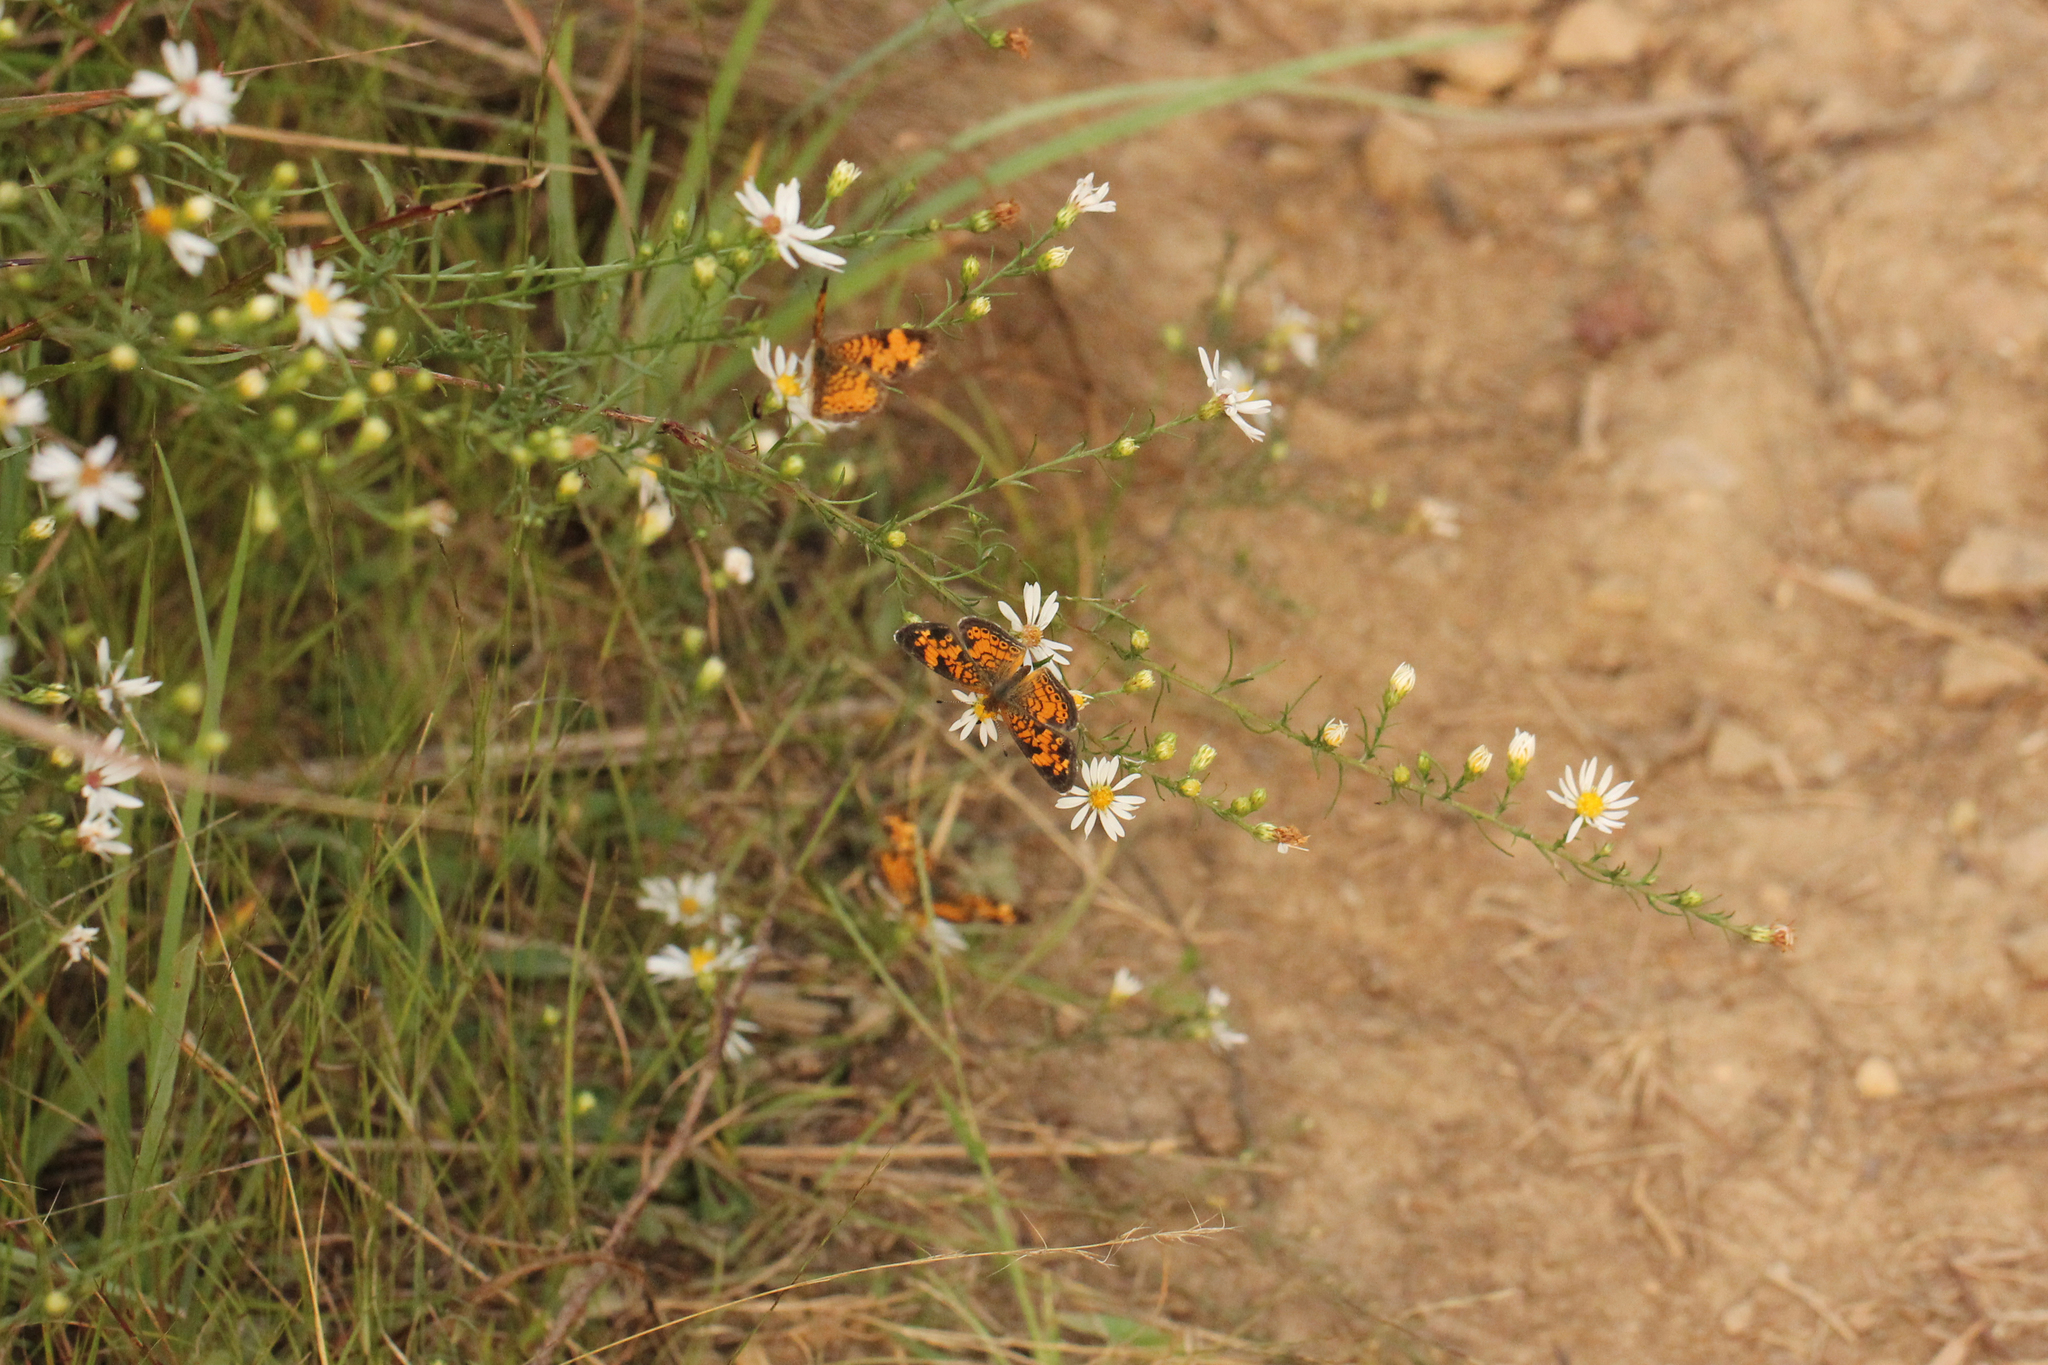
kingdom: Animalia
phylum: Arthropoda
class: Insecta
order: Lepidoptera
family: Nymphalidae
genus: Phyciodes
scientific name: Phyciodes tharos
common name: Pearl crescent
